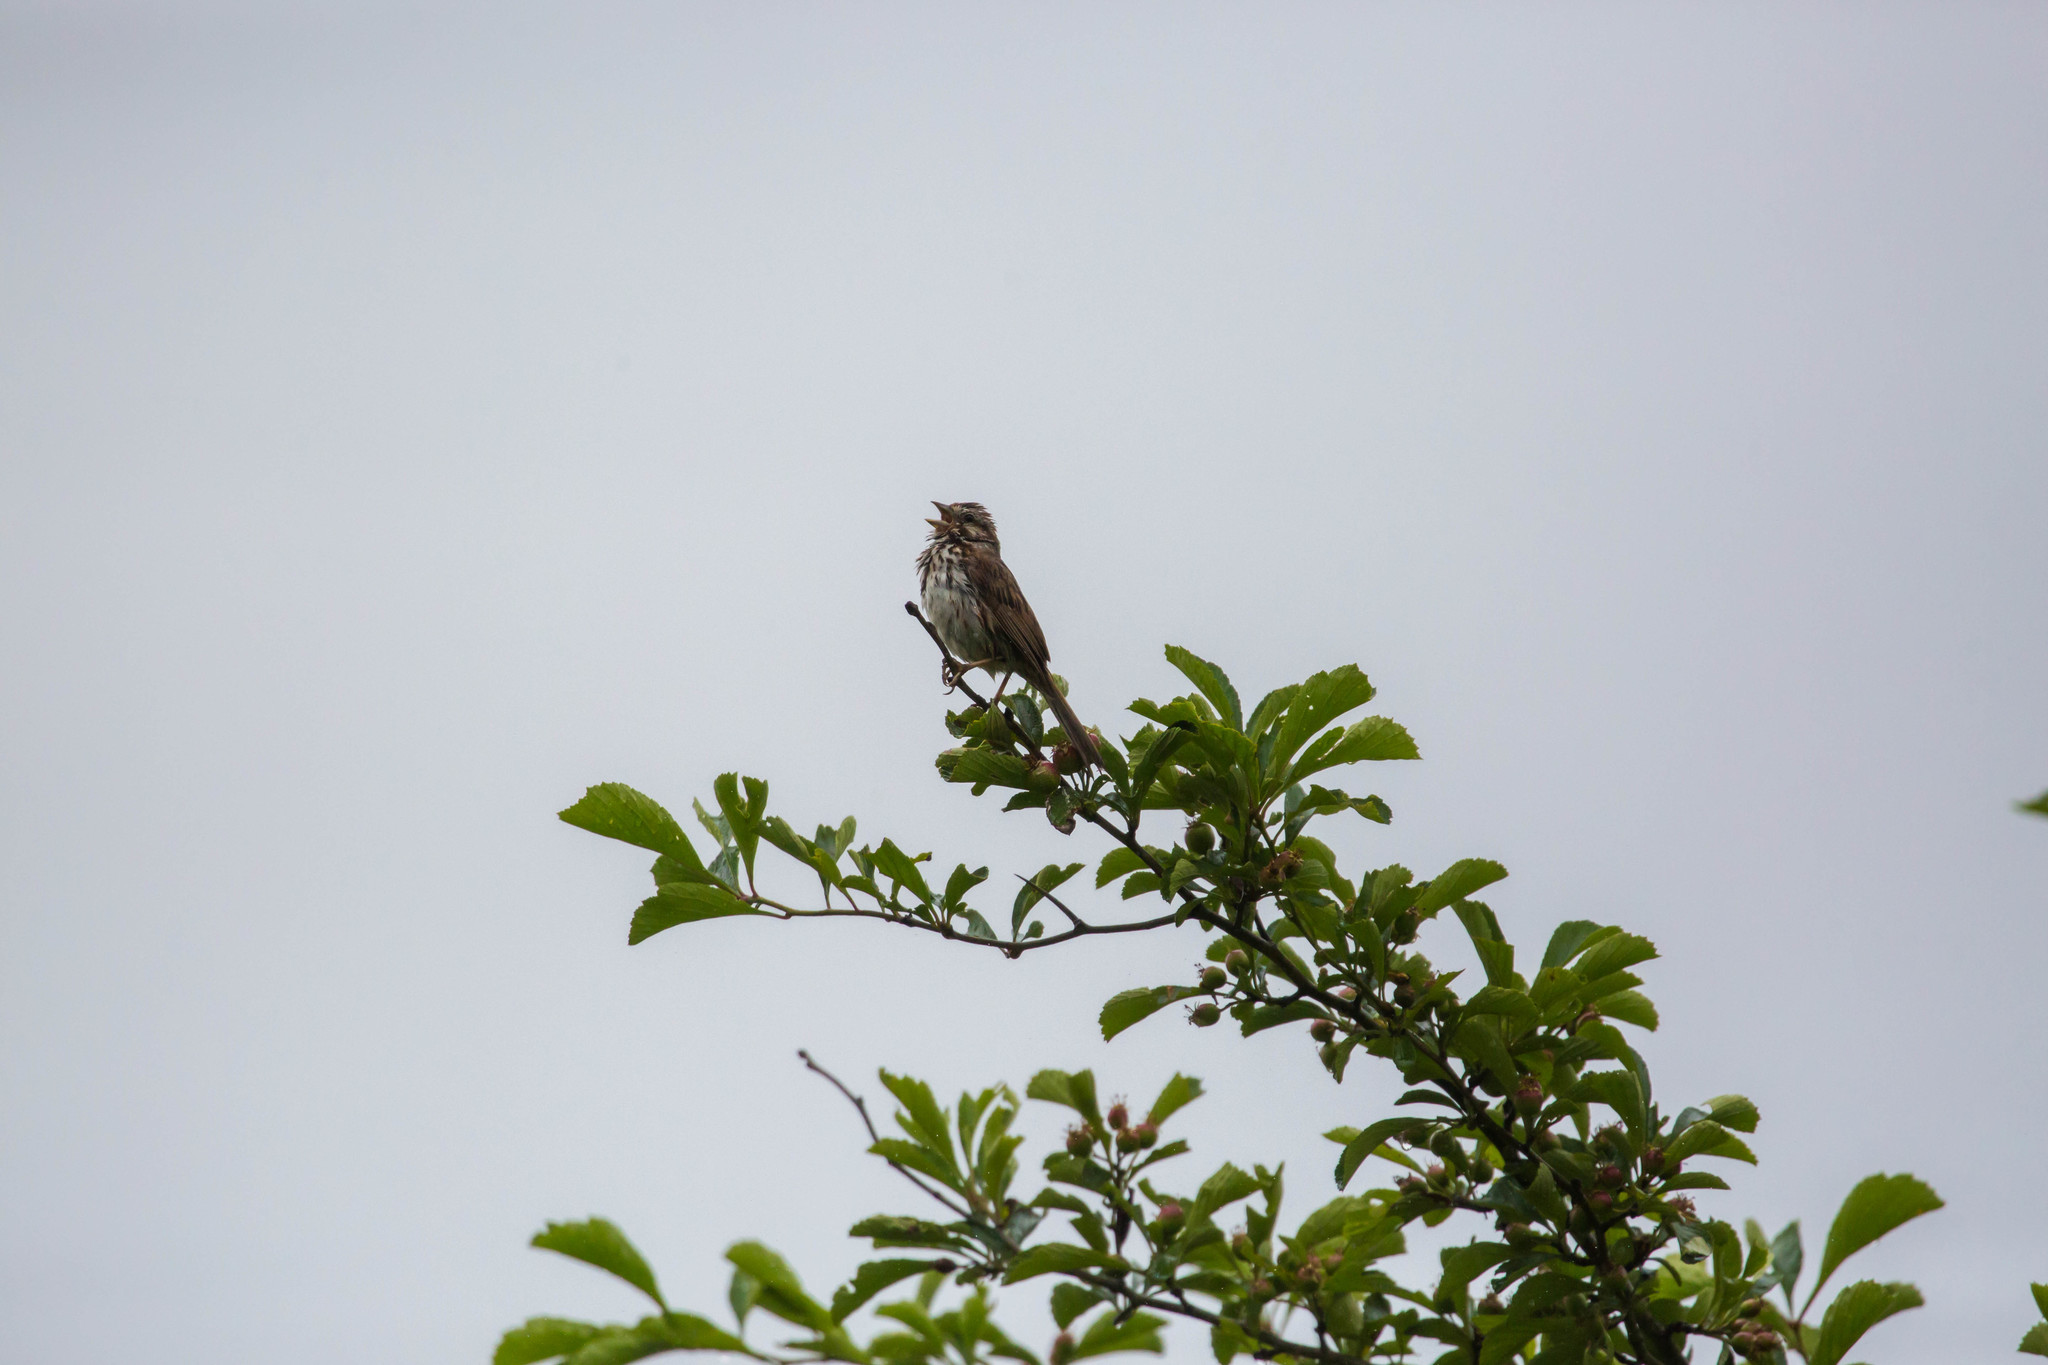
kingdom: Animalia
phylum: Chordata
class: Aves
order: Passeriformes
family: Passerellidae
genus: Melospiza
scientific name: Melospiza melodia
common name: Song sparrow
